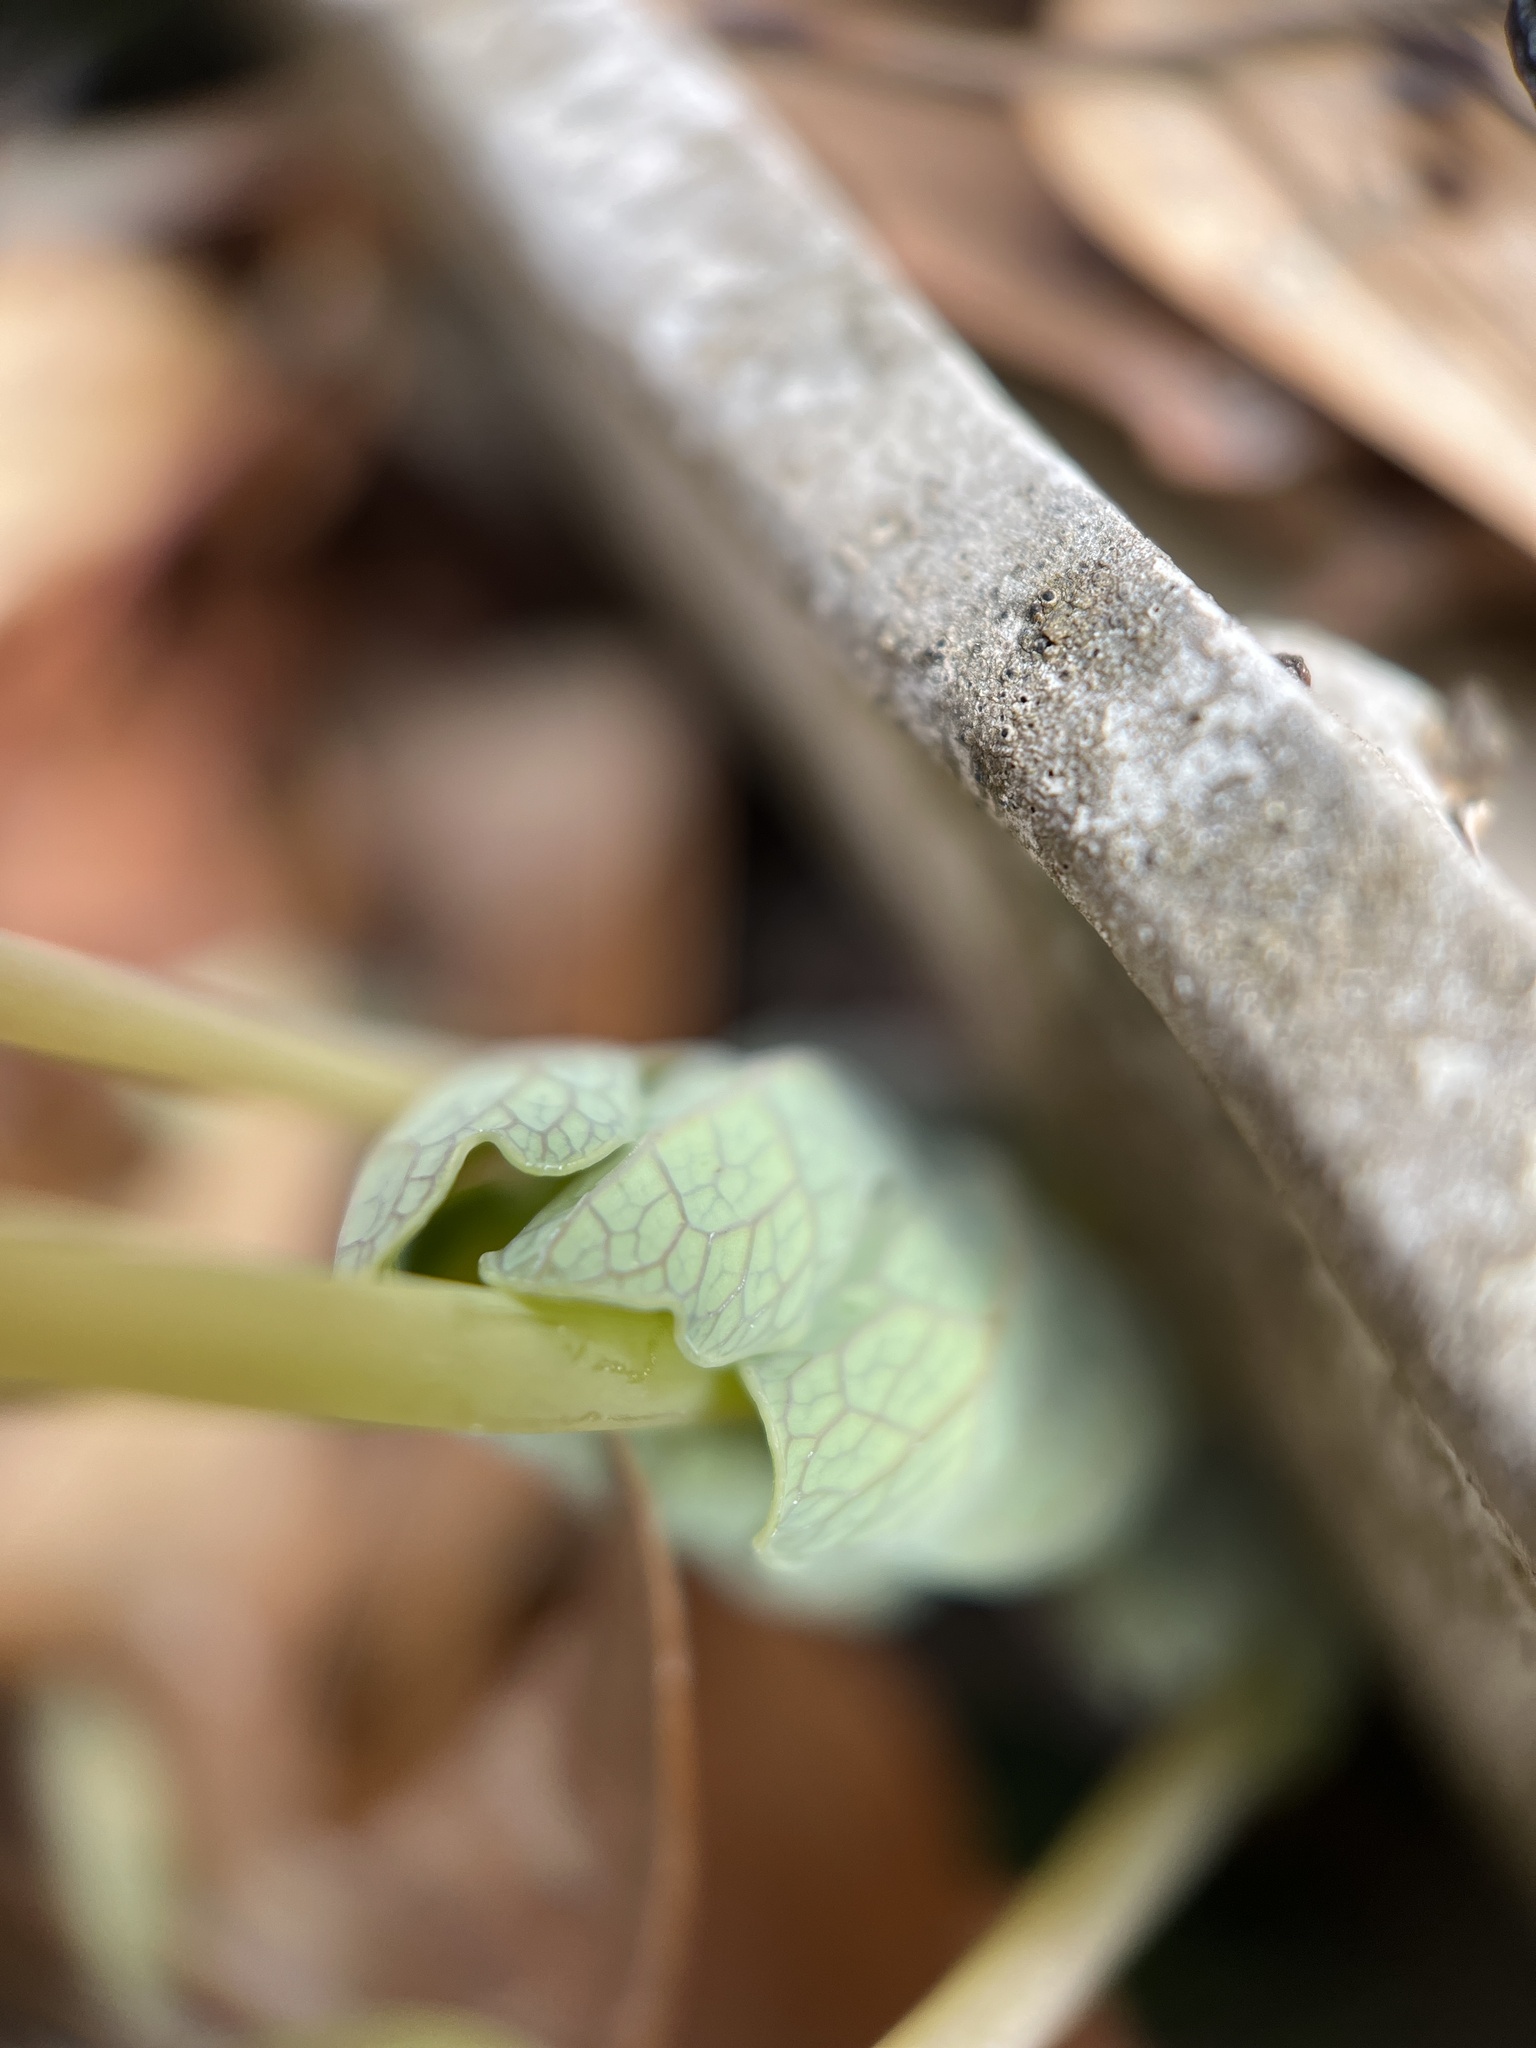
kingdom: Plantae
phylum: Tracheophyta
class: Magnoliopsida
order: Ranunculales
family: Papaveraceae
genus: Sanguinaria
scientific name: Sanguinaria canadensis
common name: Bloodroot
